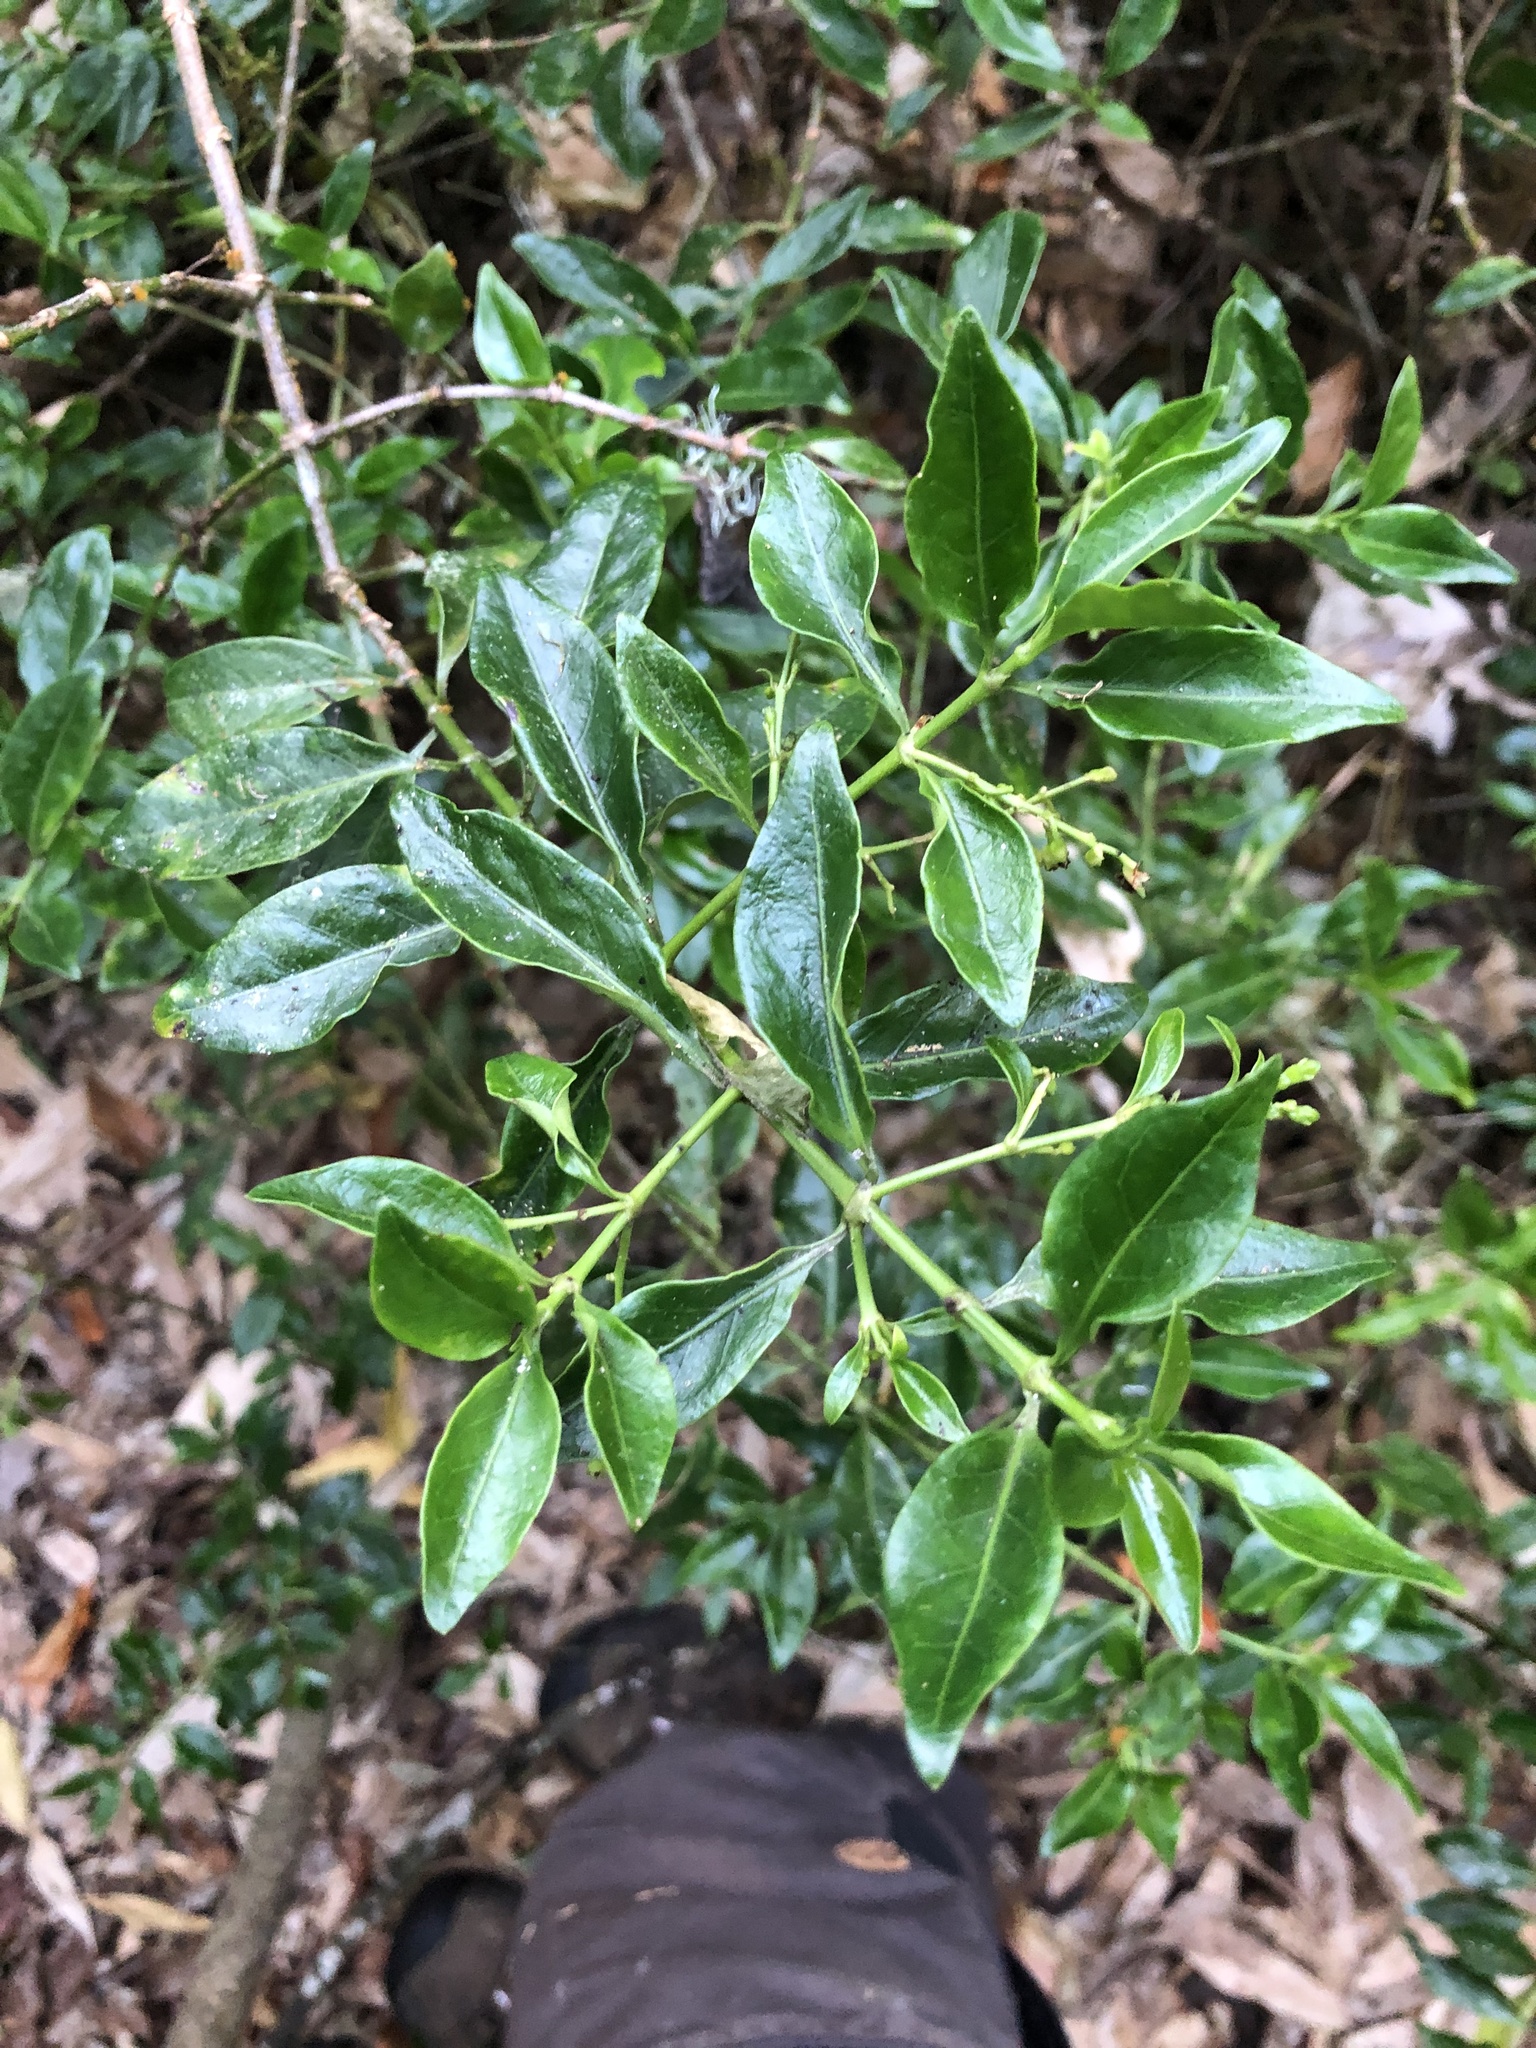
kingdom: Plantae
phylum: Tracheophyta
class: Magnoliopsida
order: Gentianales
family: Rubiaceae
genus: Chiococca
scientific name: Chiococca alba
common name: Snowberry
